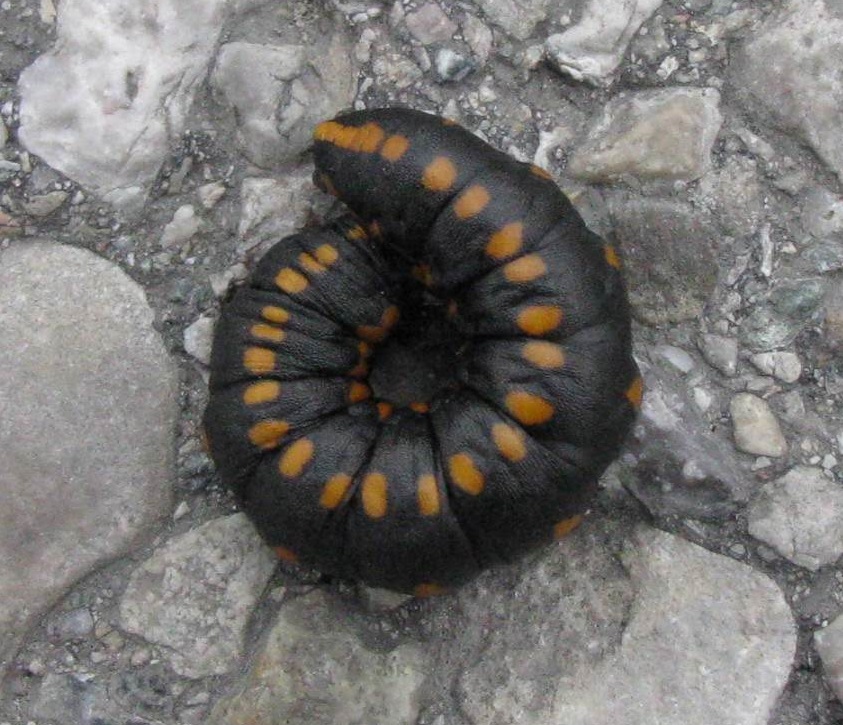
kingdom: Animalia
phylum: Arthropoda
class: Insecta
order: Lepidoptera
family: Noctuidae
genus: Cucullia
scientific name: Cucullia lucifuga
